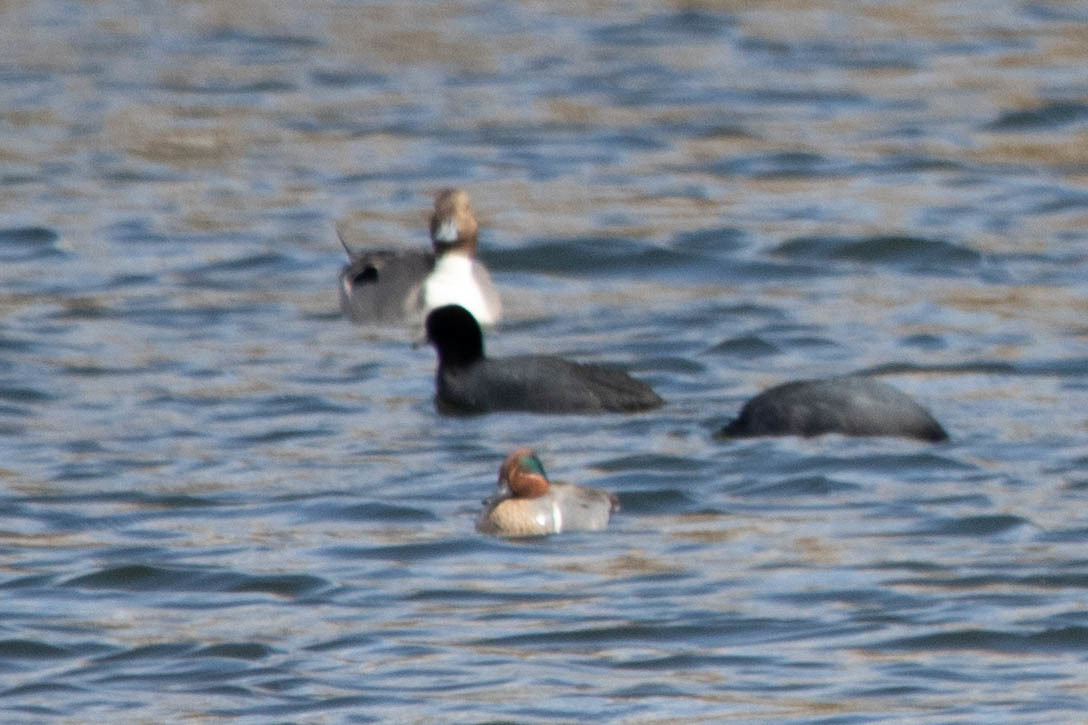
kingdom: Animalia
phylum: Chordata
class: Aves
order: Anseriformes
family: Anatidae
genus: Anas
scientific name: Anas acuta
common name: Northern pintail
